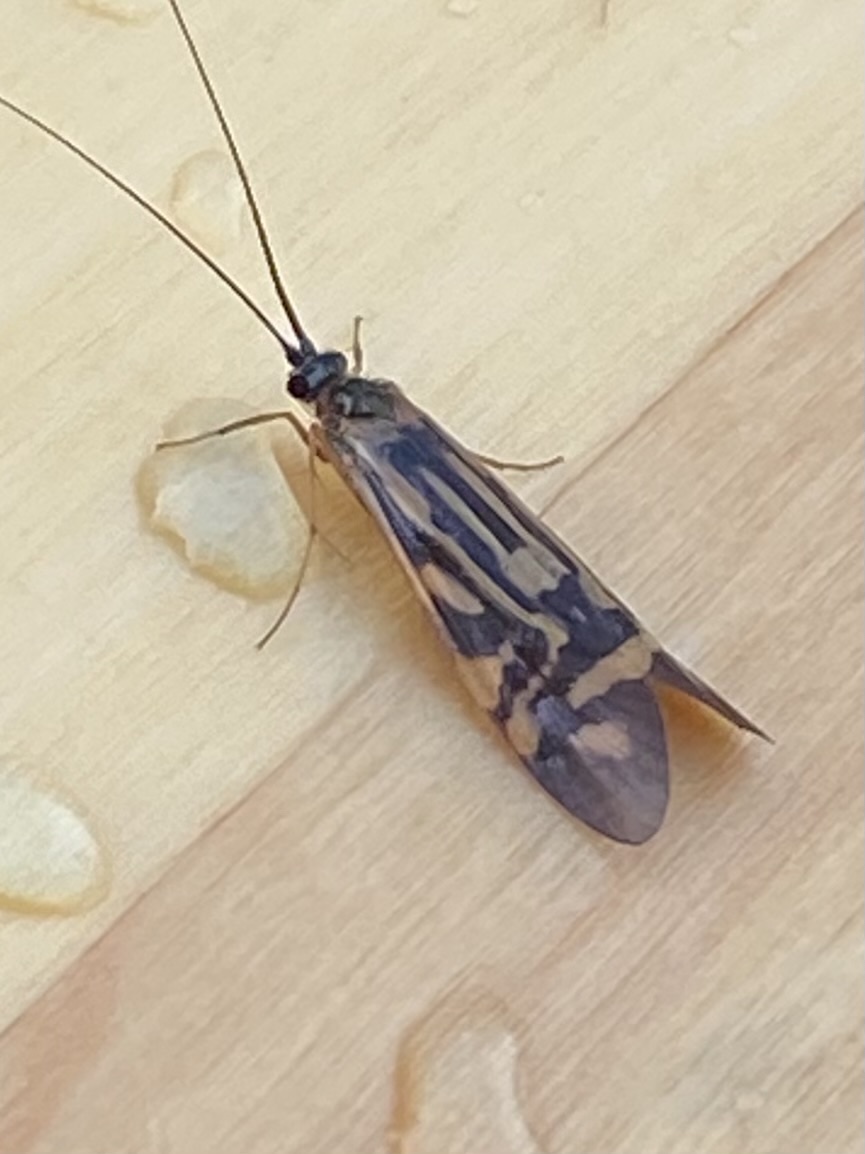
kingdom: Animalia
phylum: Arthropoda
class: Insecta
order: Trichoptera
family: Hydropsychidae
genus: Macrostemum
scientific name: Macrostemum zebratum
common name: Zebra caddisfly
